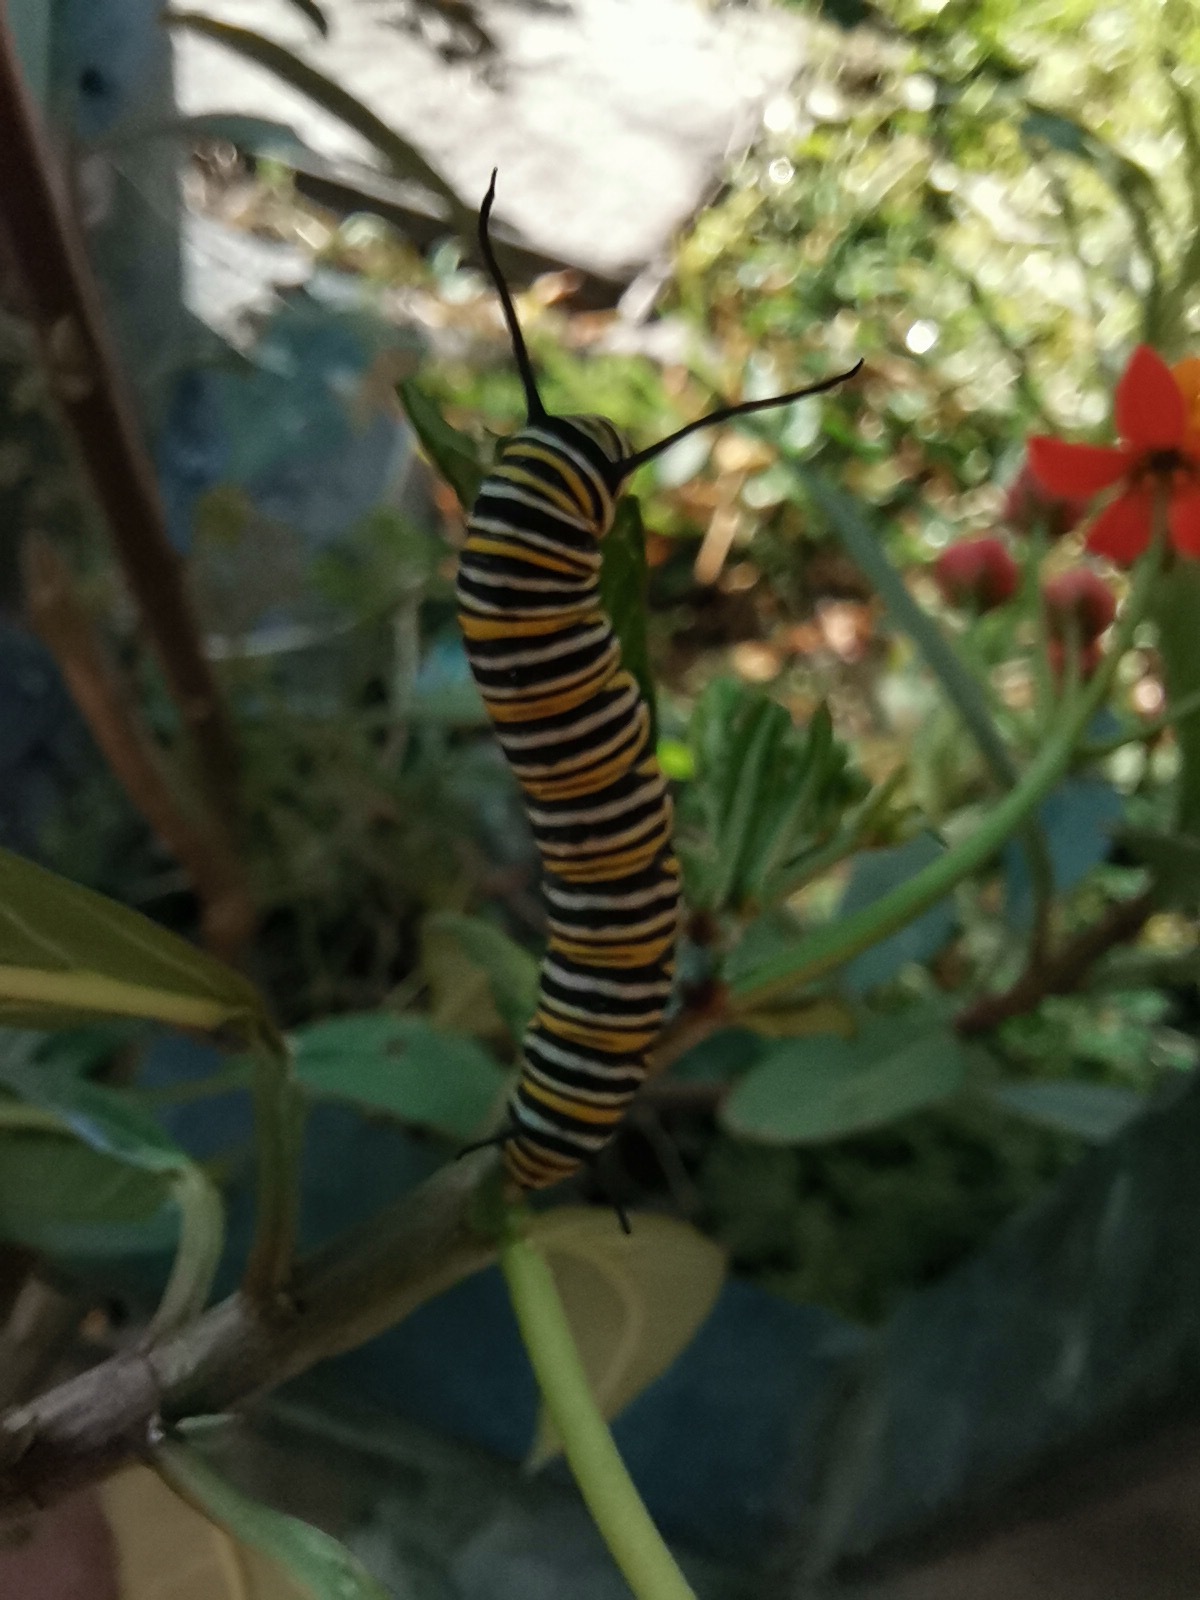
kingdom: Animalia
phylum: Arthropoda
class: Insecta
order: Lepidoptera
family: Nymphalidae
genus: Danaus
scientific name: Danaus plexippus
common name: Monarch
